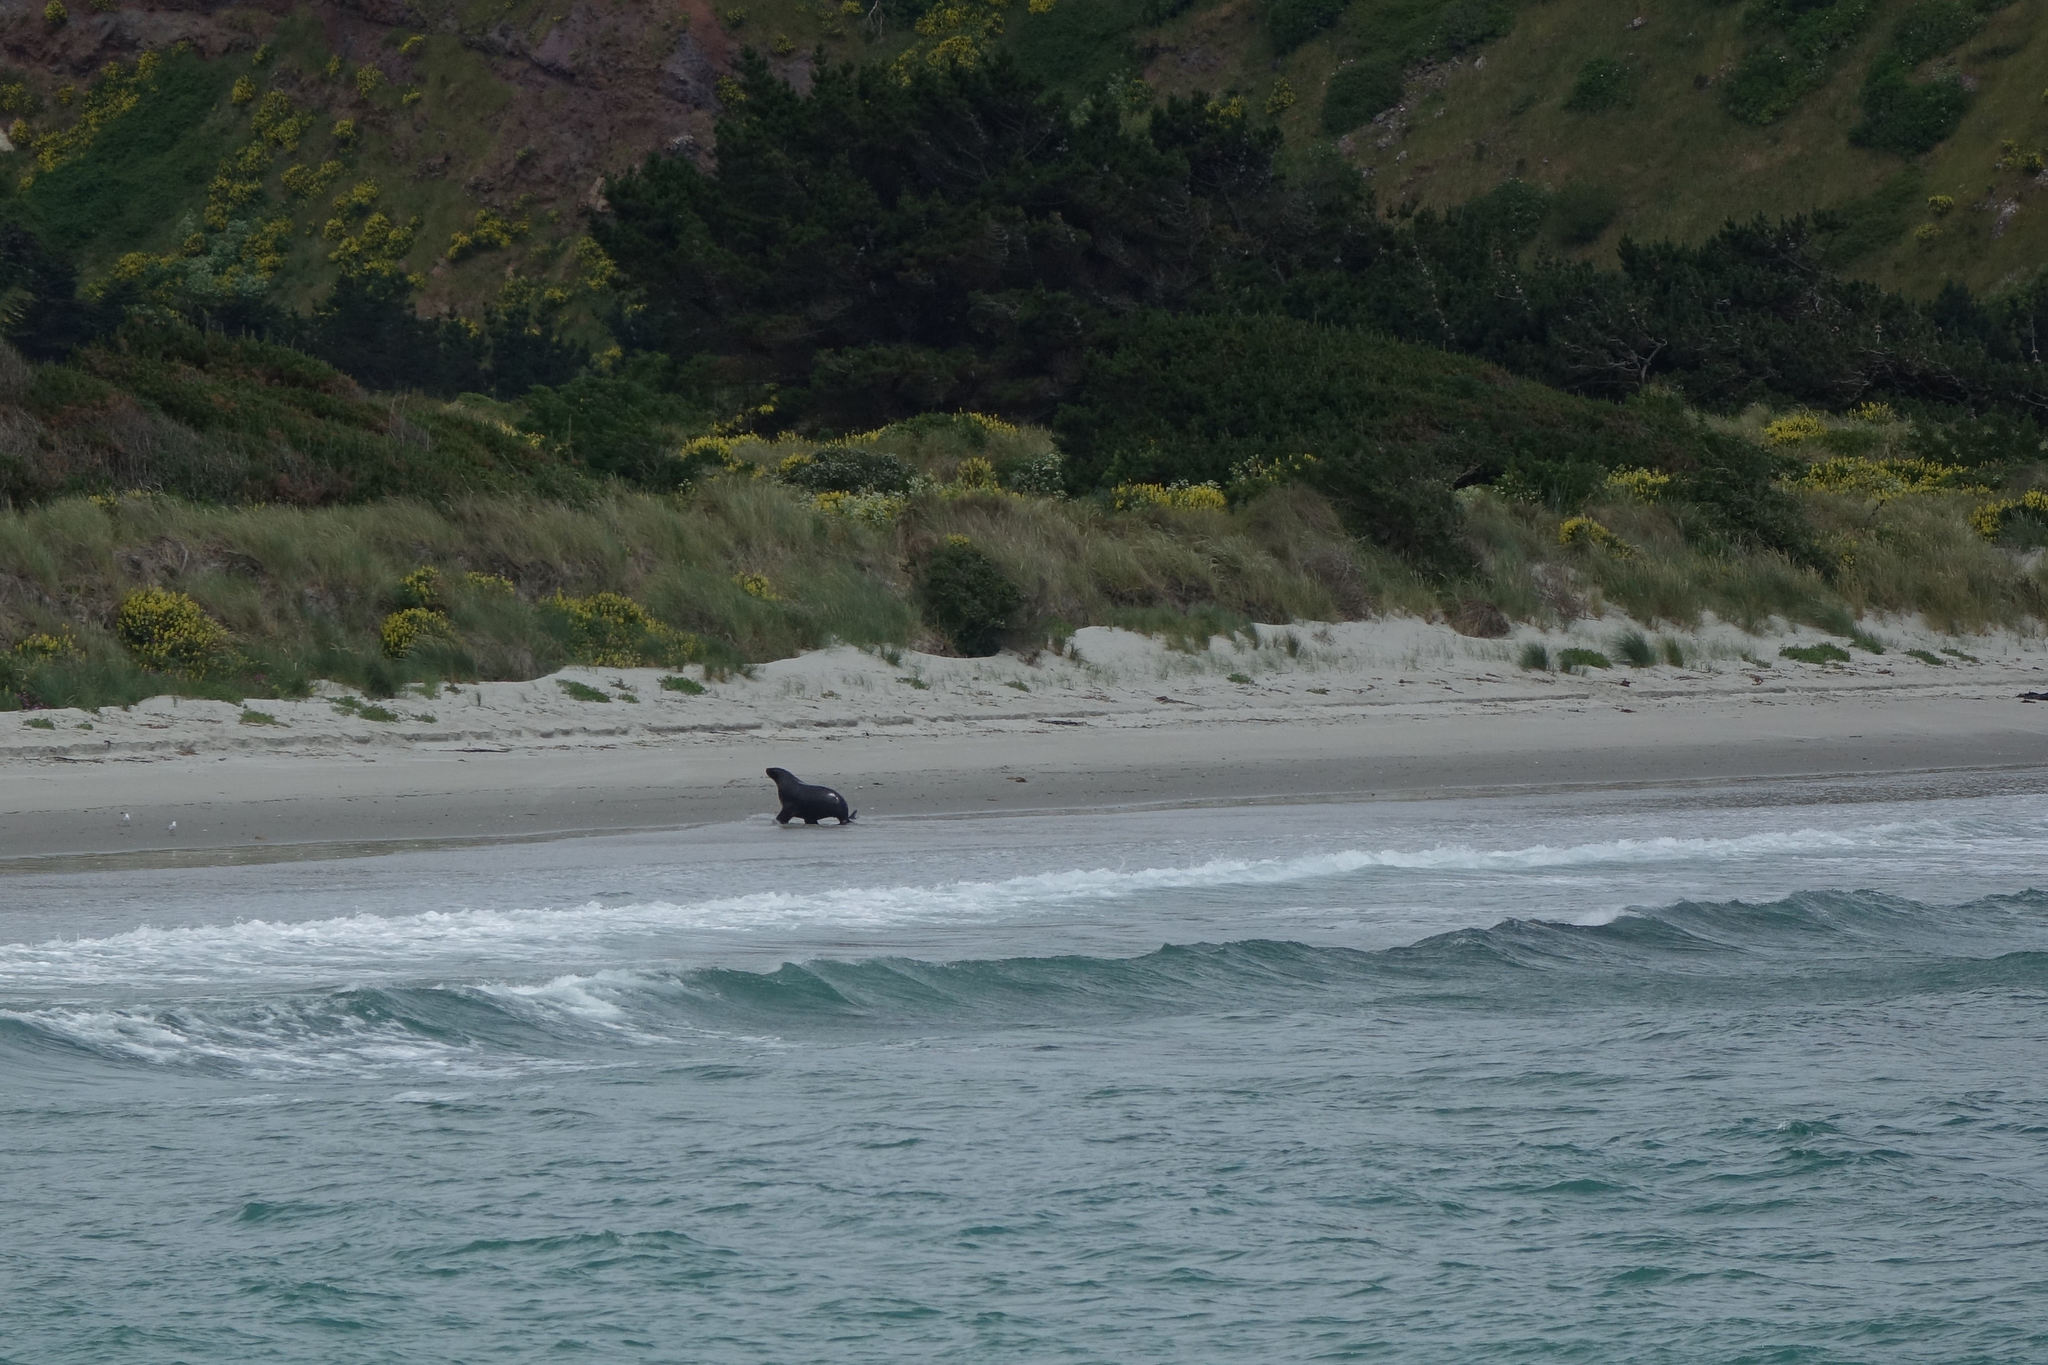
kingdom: Animalia
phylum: Chordata
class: Mammalia
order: Carnivora
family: Otariidae
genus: Phocarctos
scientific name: Phocarctos hookeri
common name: New zealand sea lion
